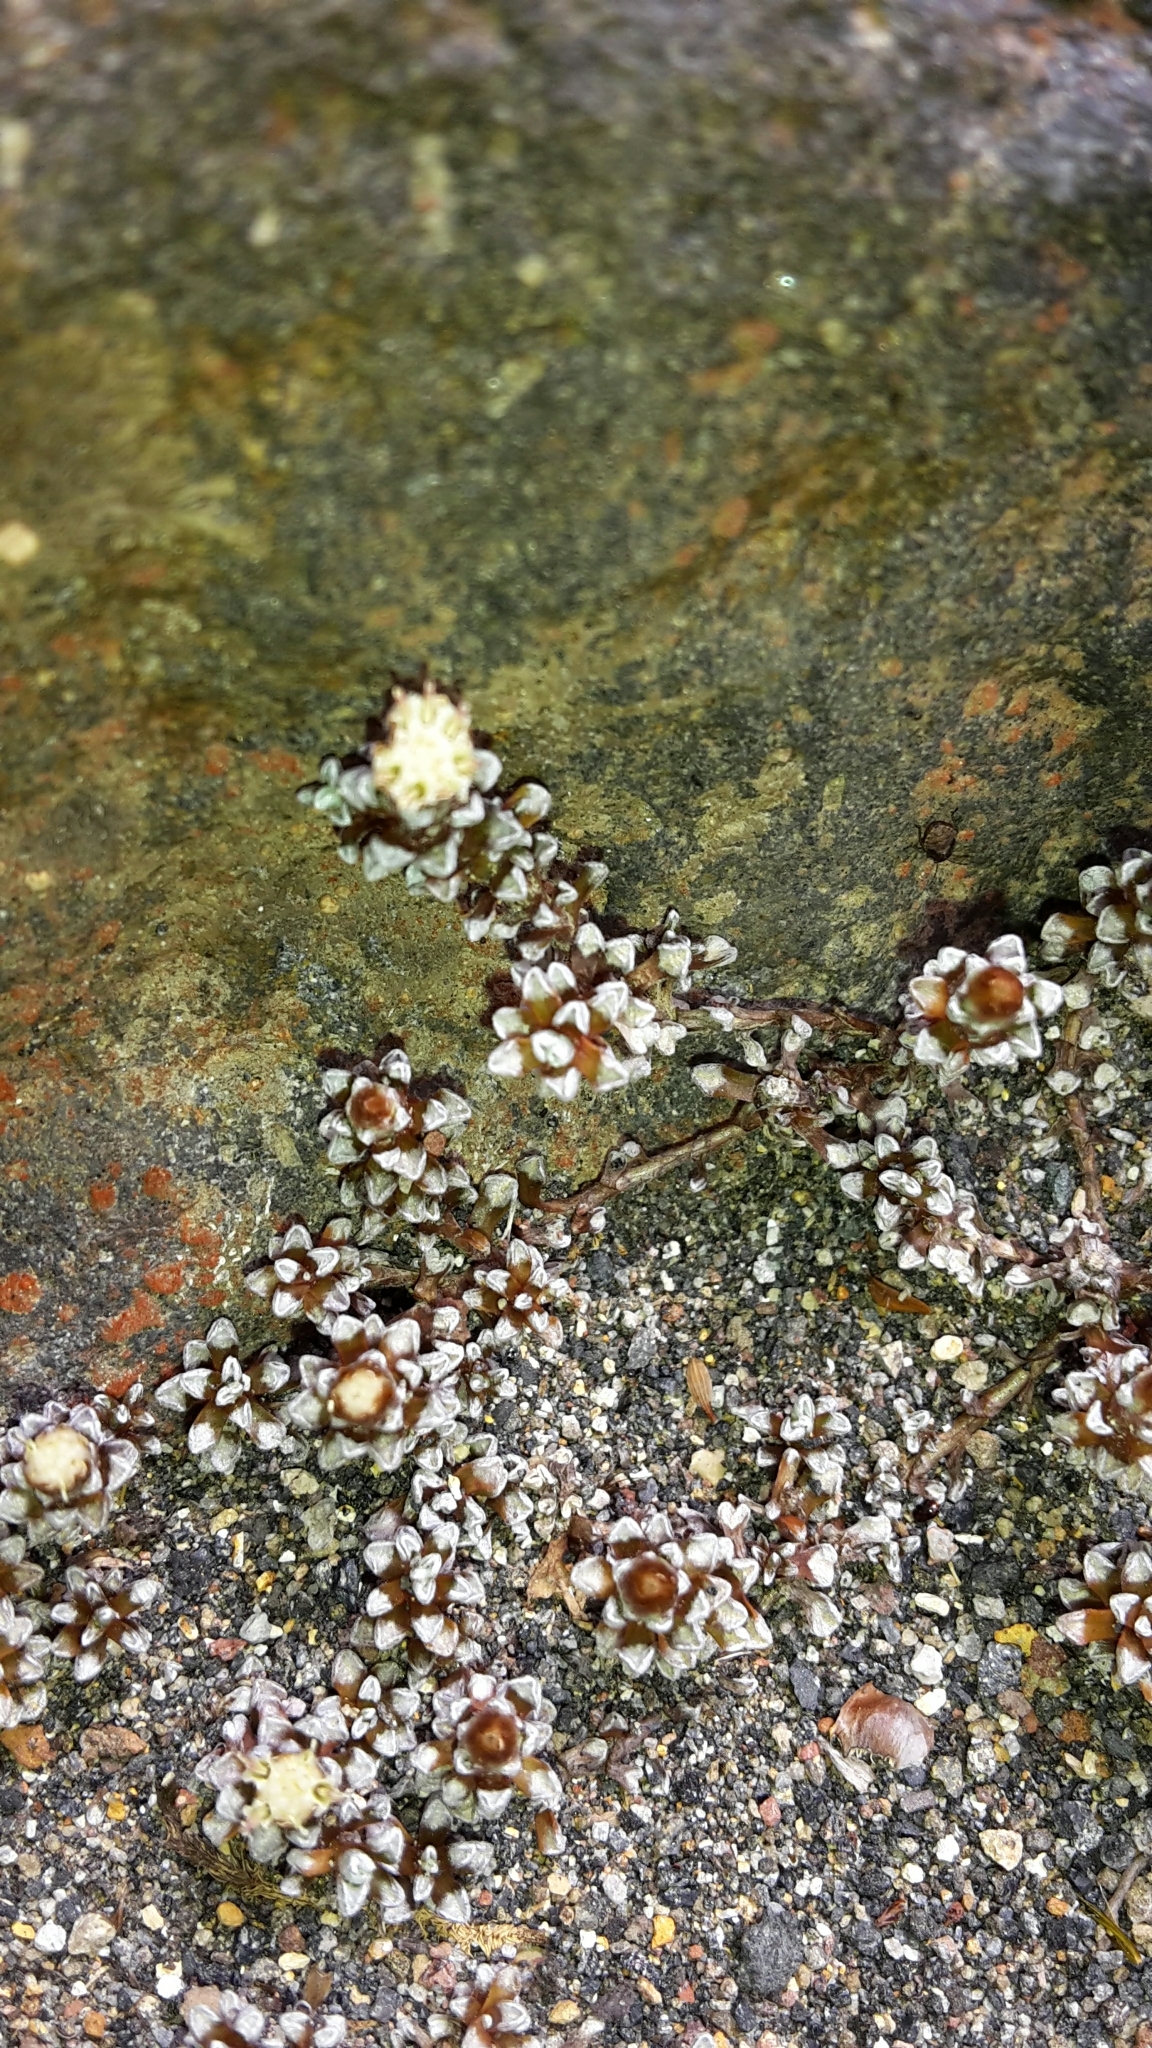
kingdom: Plantae
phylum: Tracheophyta
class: Magnoliopsida
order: Asterales
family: Asteraceae
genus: Raoulia
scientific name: Raoulia albosericea
